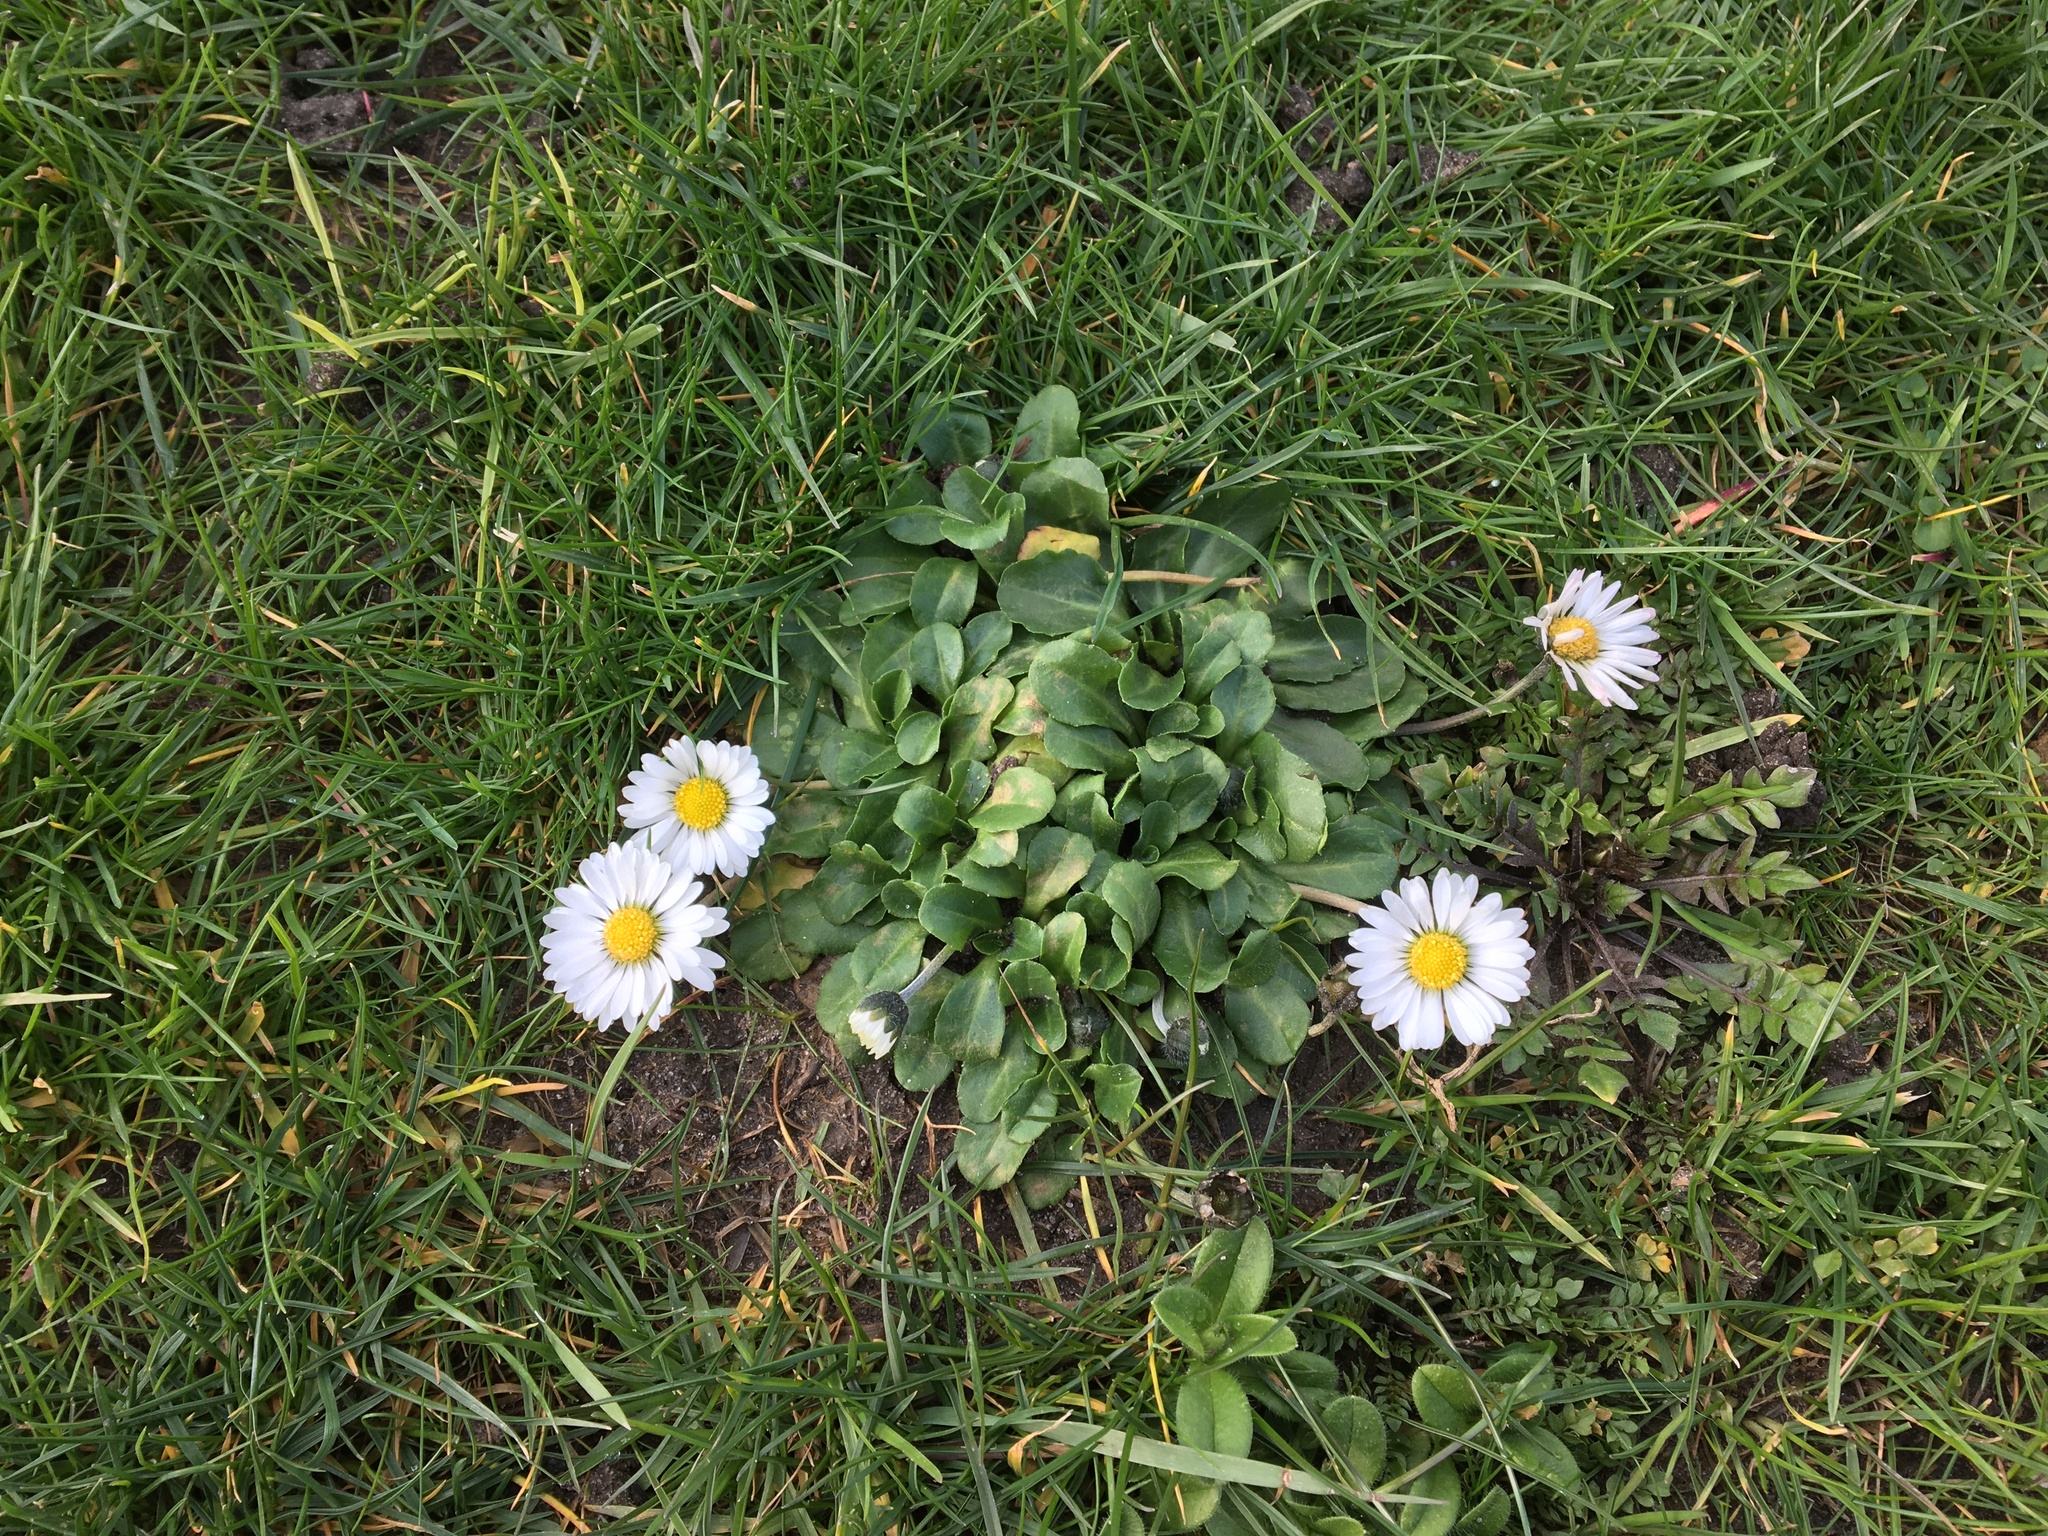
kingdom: Plantae
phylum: Tracheophyta
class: Magnoliopsida
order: Asterales
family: Asteraceae
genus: Bellis
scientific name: Bellis perennis
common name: Lawndaisy
